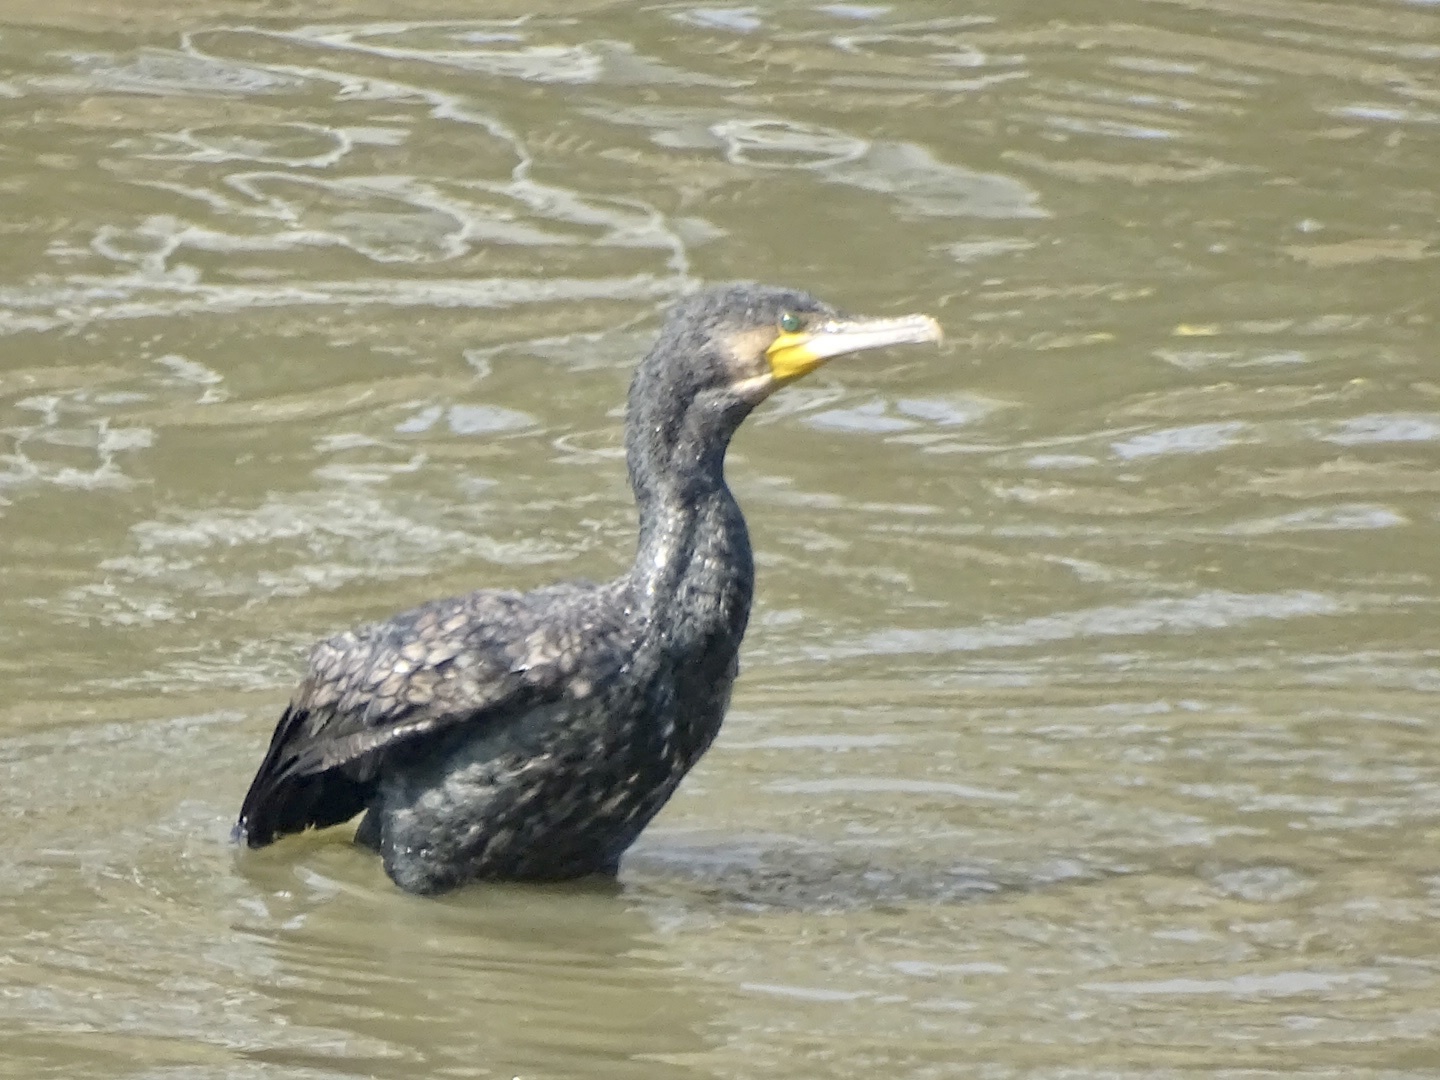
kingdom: Animalia
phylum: Chordata
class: Aves
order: Suliformes
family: Phalacrocoracidae
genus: Phalacrocorax
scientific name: Phalacrocorax carbo
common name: Great cormorant
